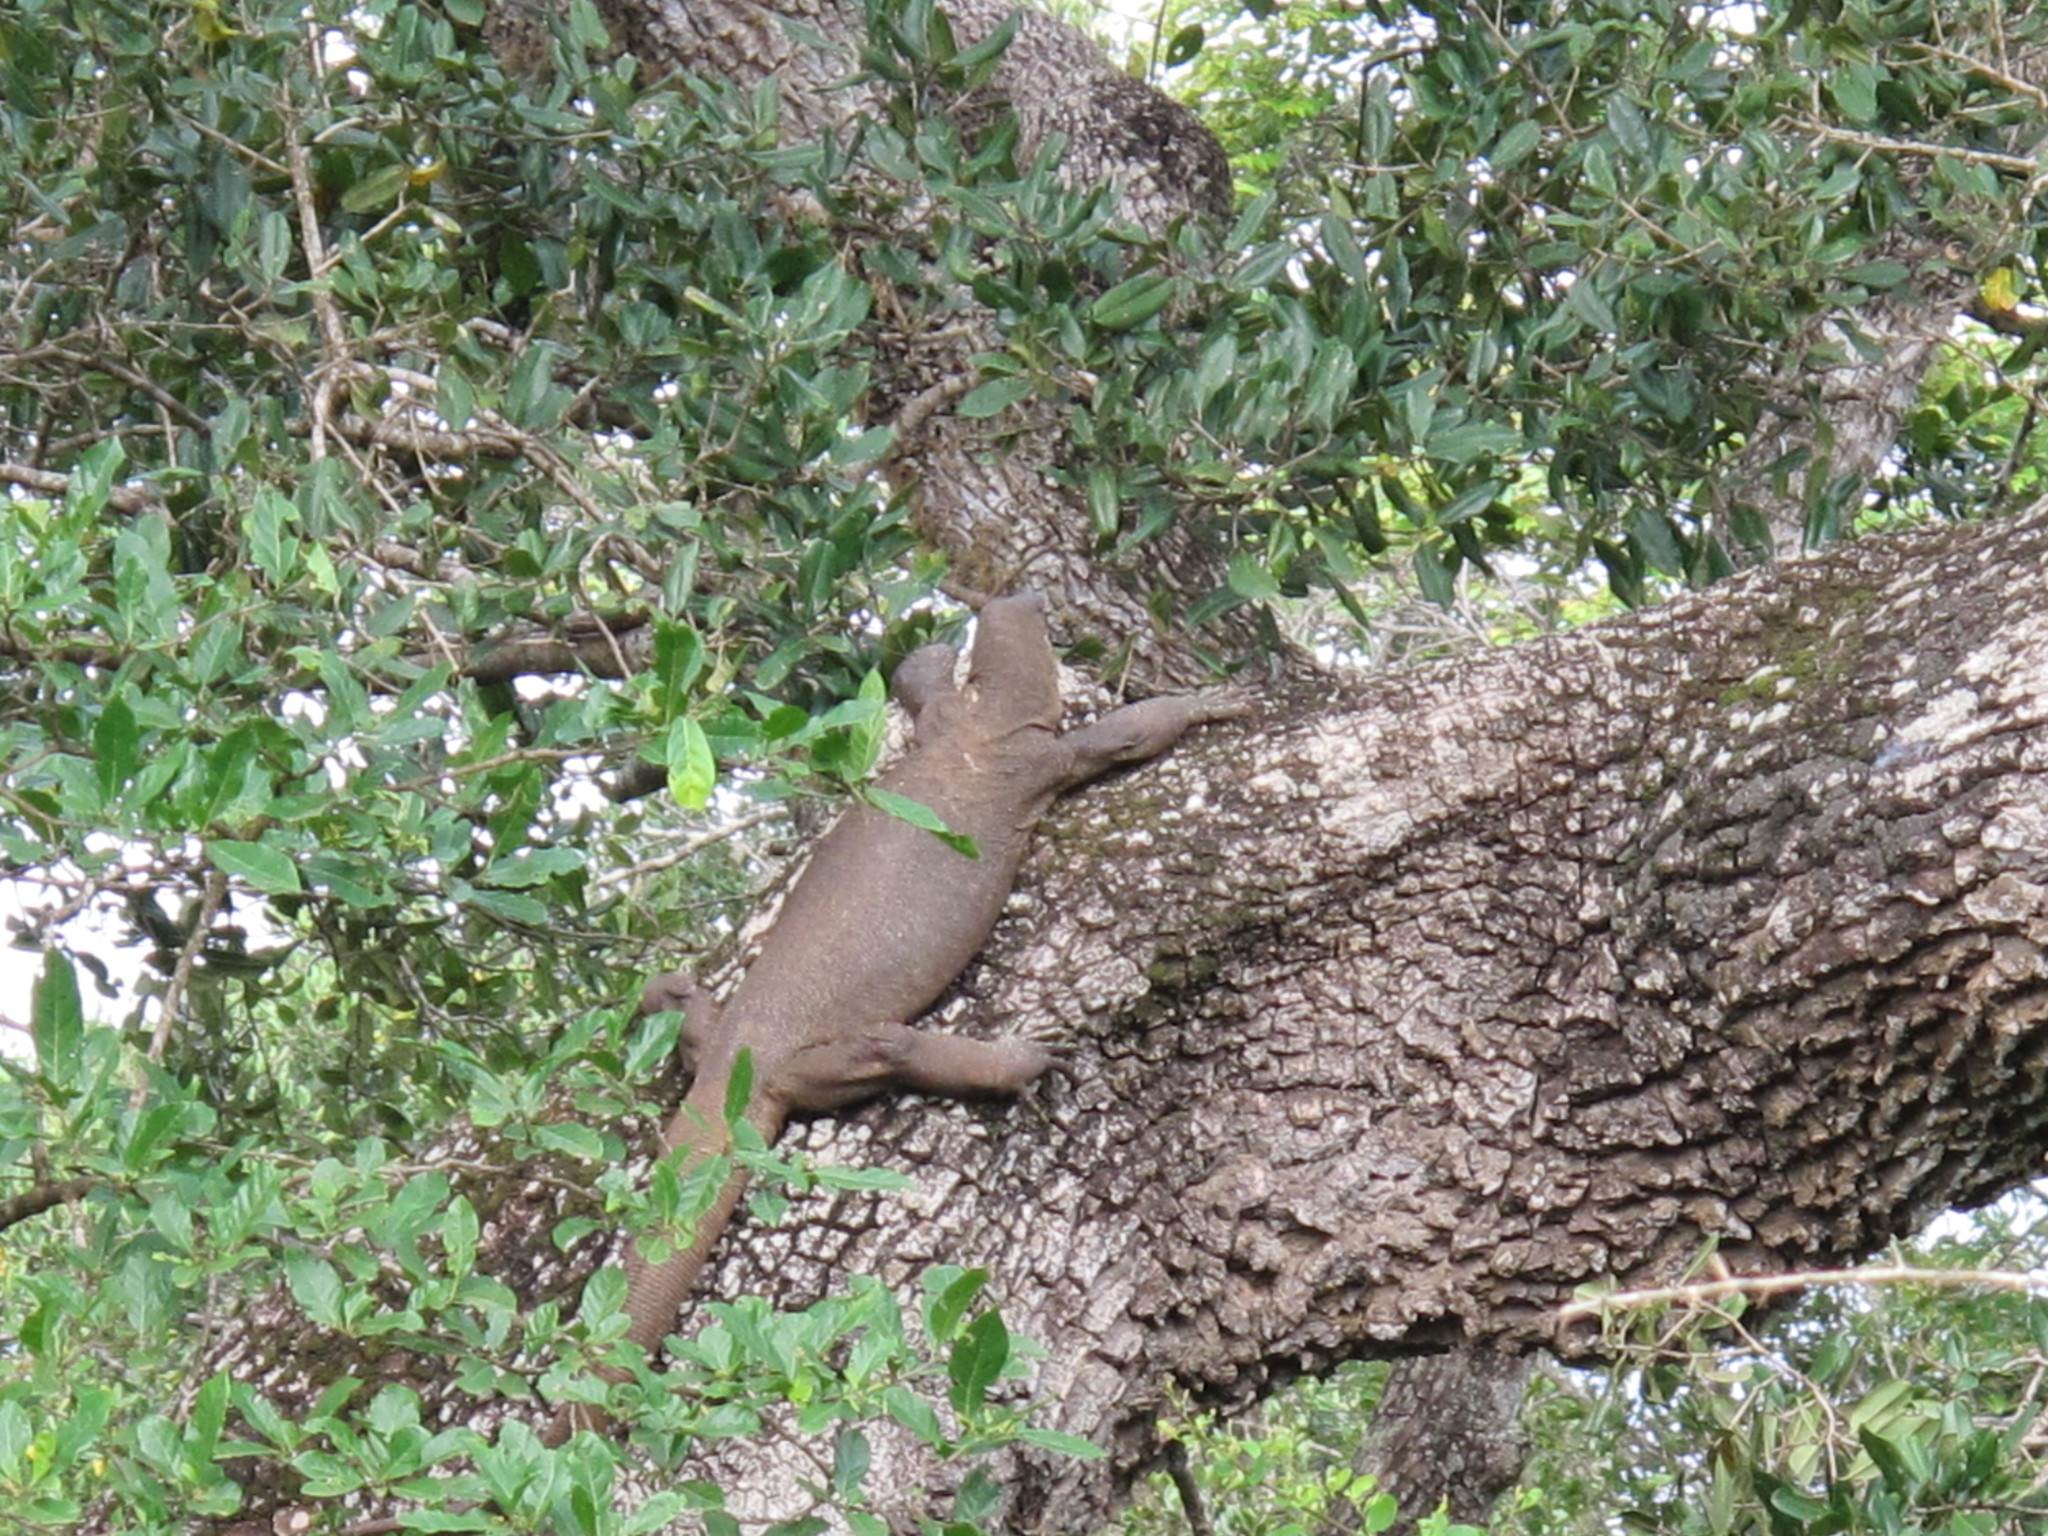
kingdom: Animalia
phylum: Chordata
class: Squamata
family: Varanidae
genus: Varanus
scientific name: Varanus bengalensis
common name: Bengal monitor
